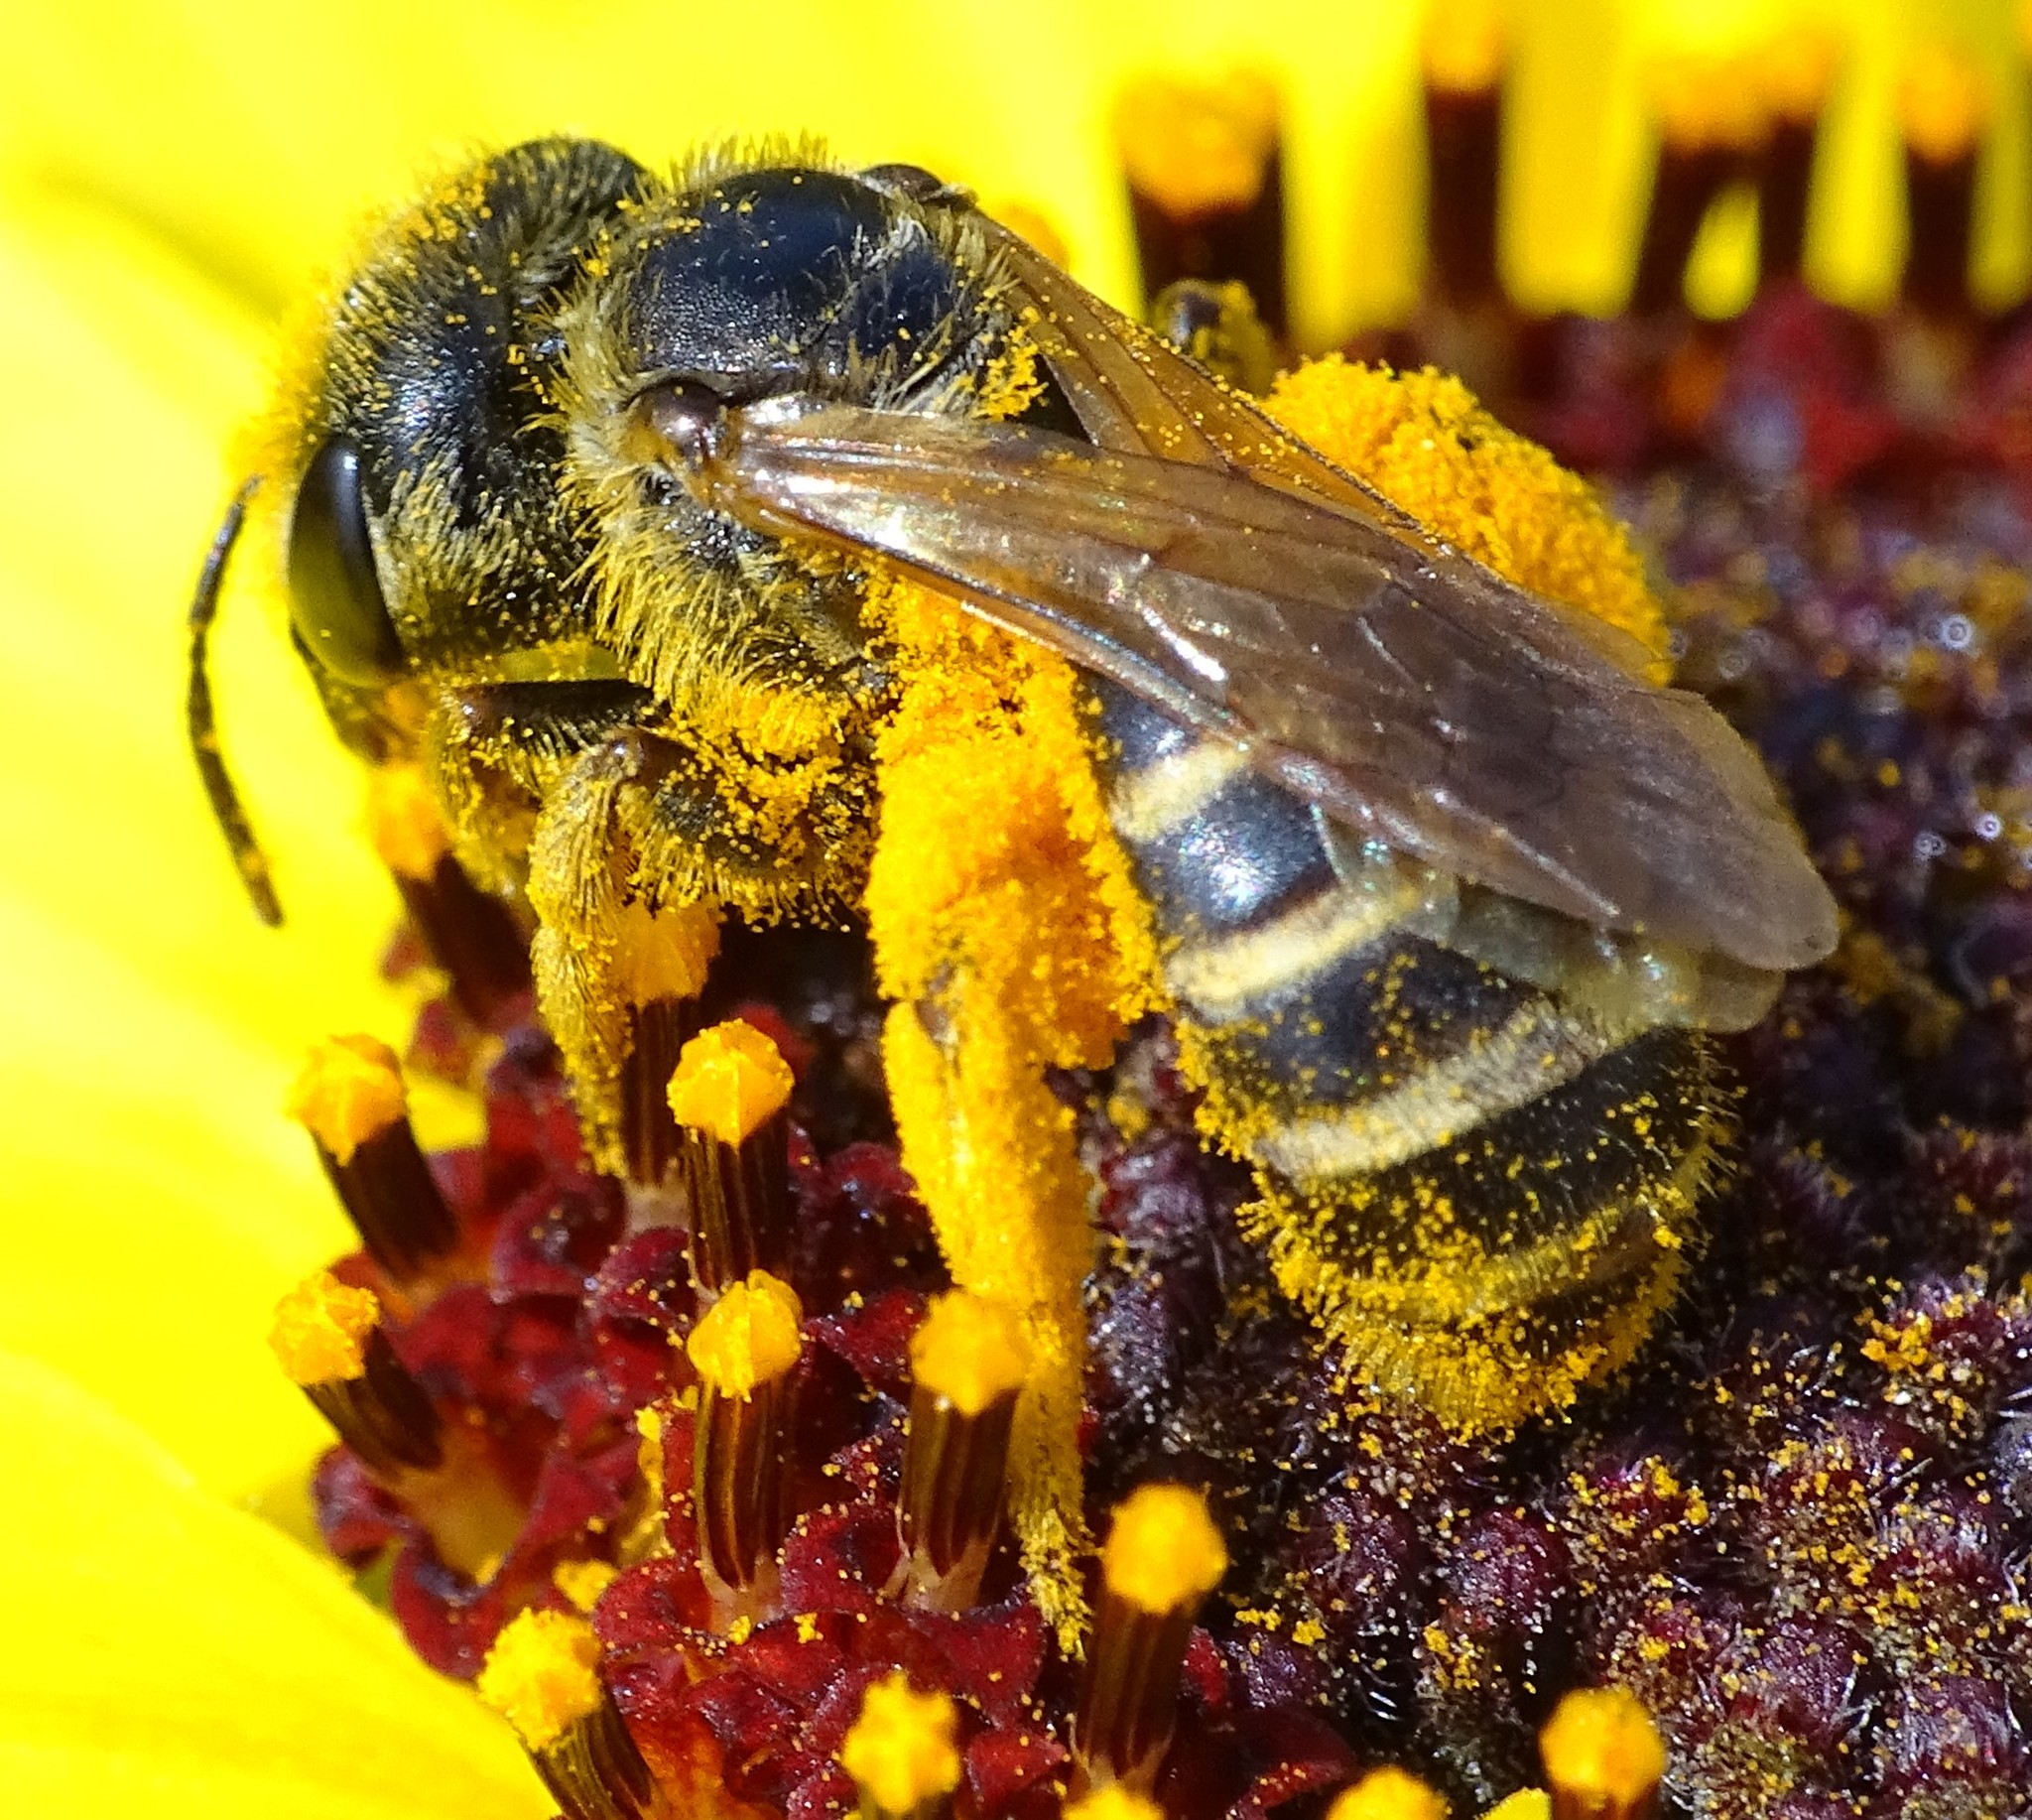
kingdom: Animalia
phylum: Arthropoda
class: Insecta
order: Hymenoptera
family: Halictidae
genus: Halictus
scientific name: Halictus ligatus
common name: Ligated furrow bee
